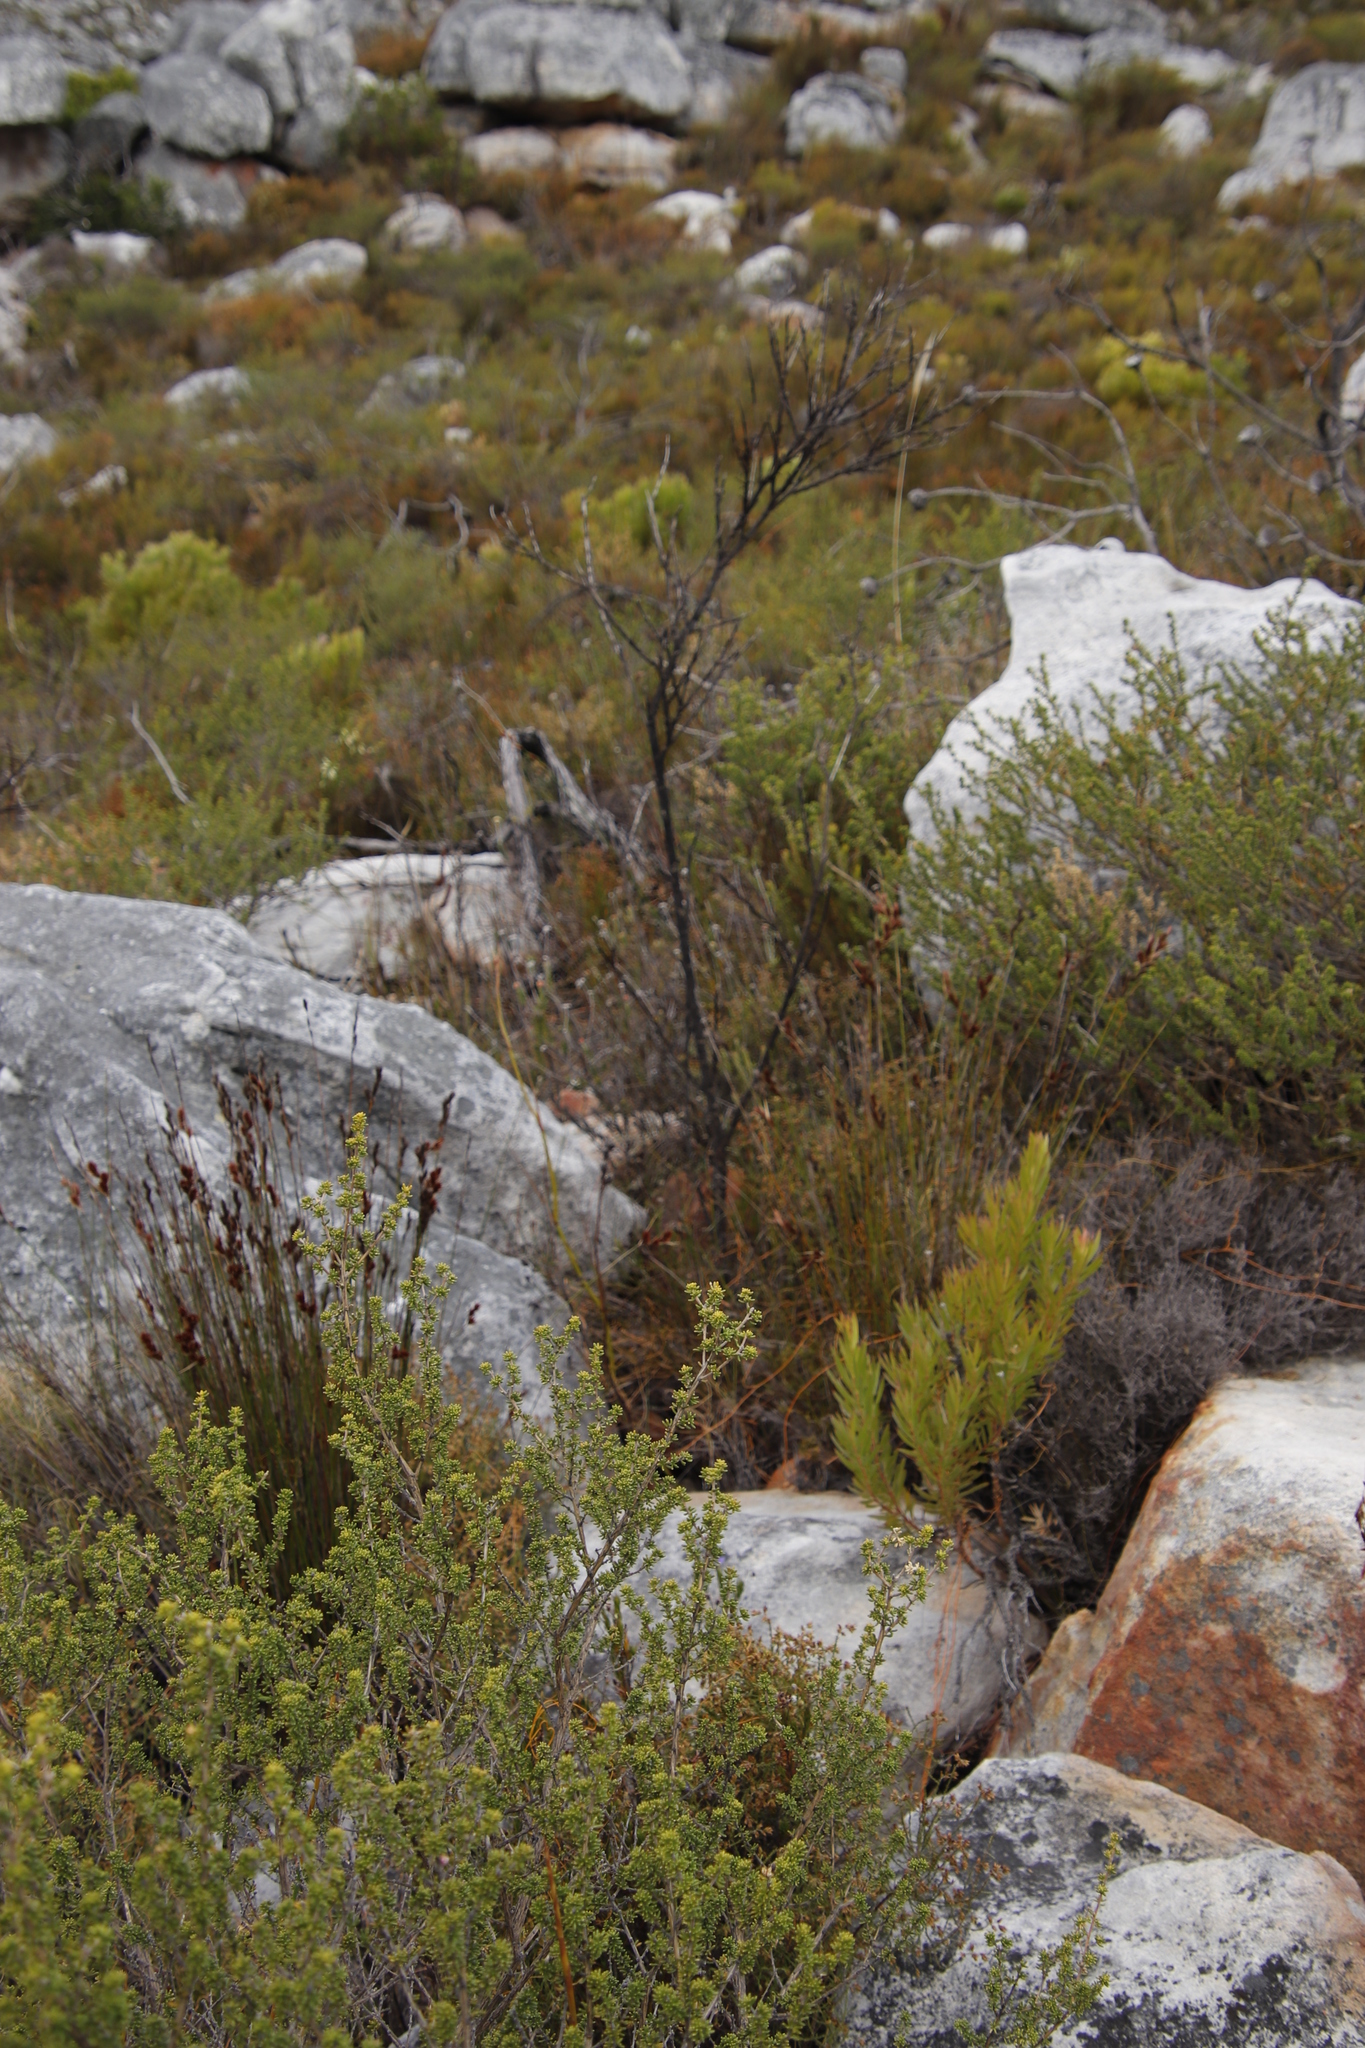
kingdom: Plantae
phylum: Tracheophyta
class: Magnoliopsida
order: Santalales
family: Thesiaceae
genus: Thesium
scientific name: Thesium strictum
